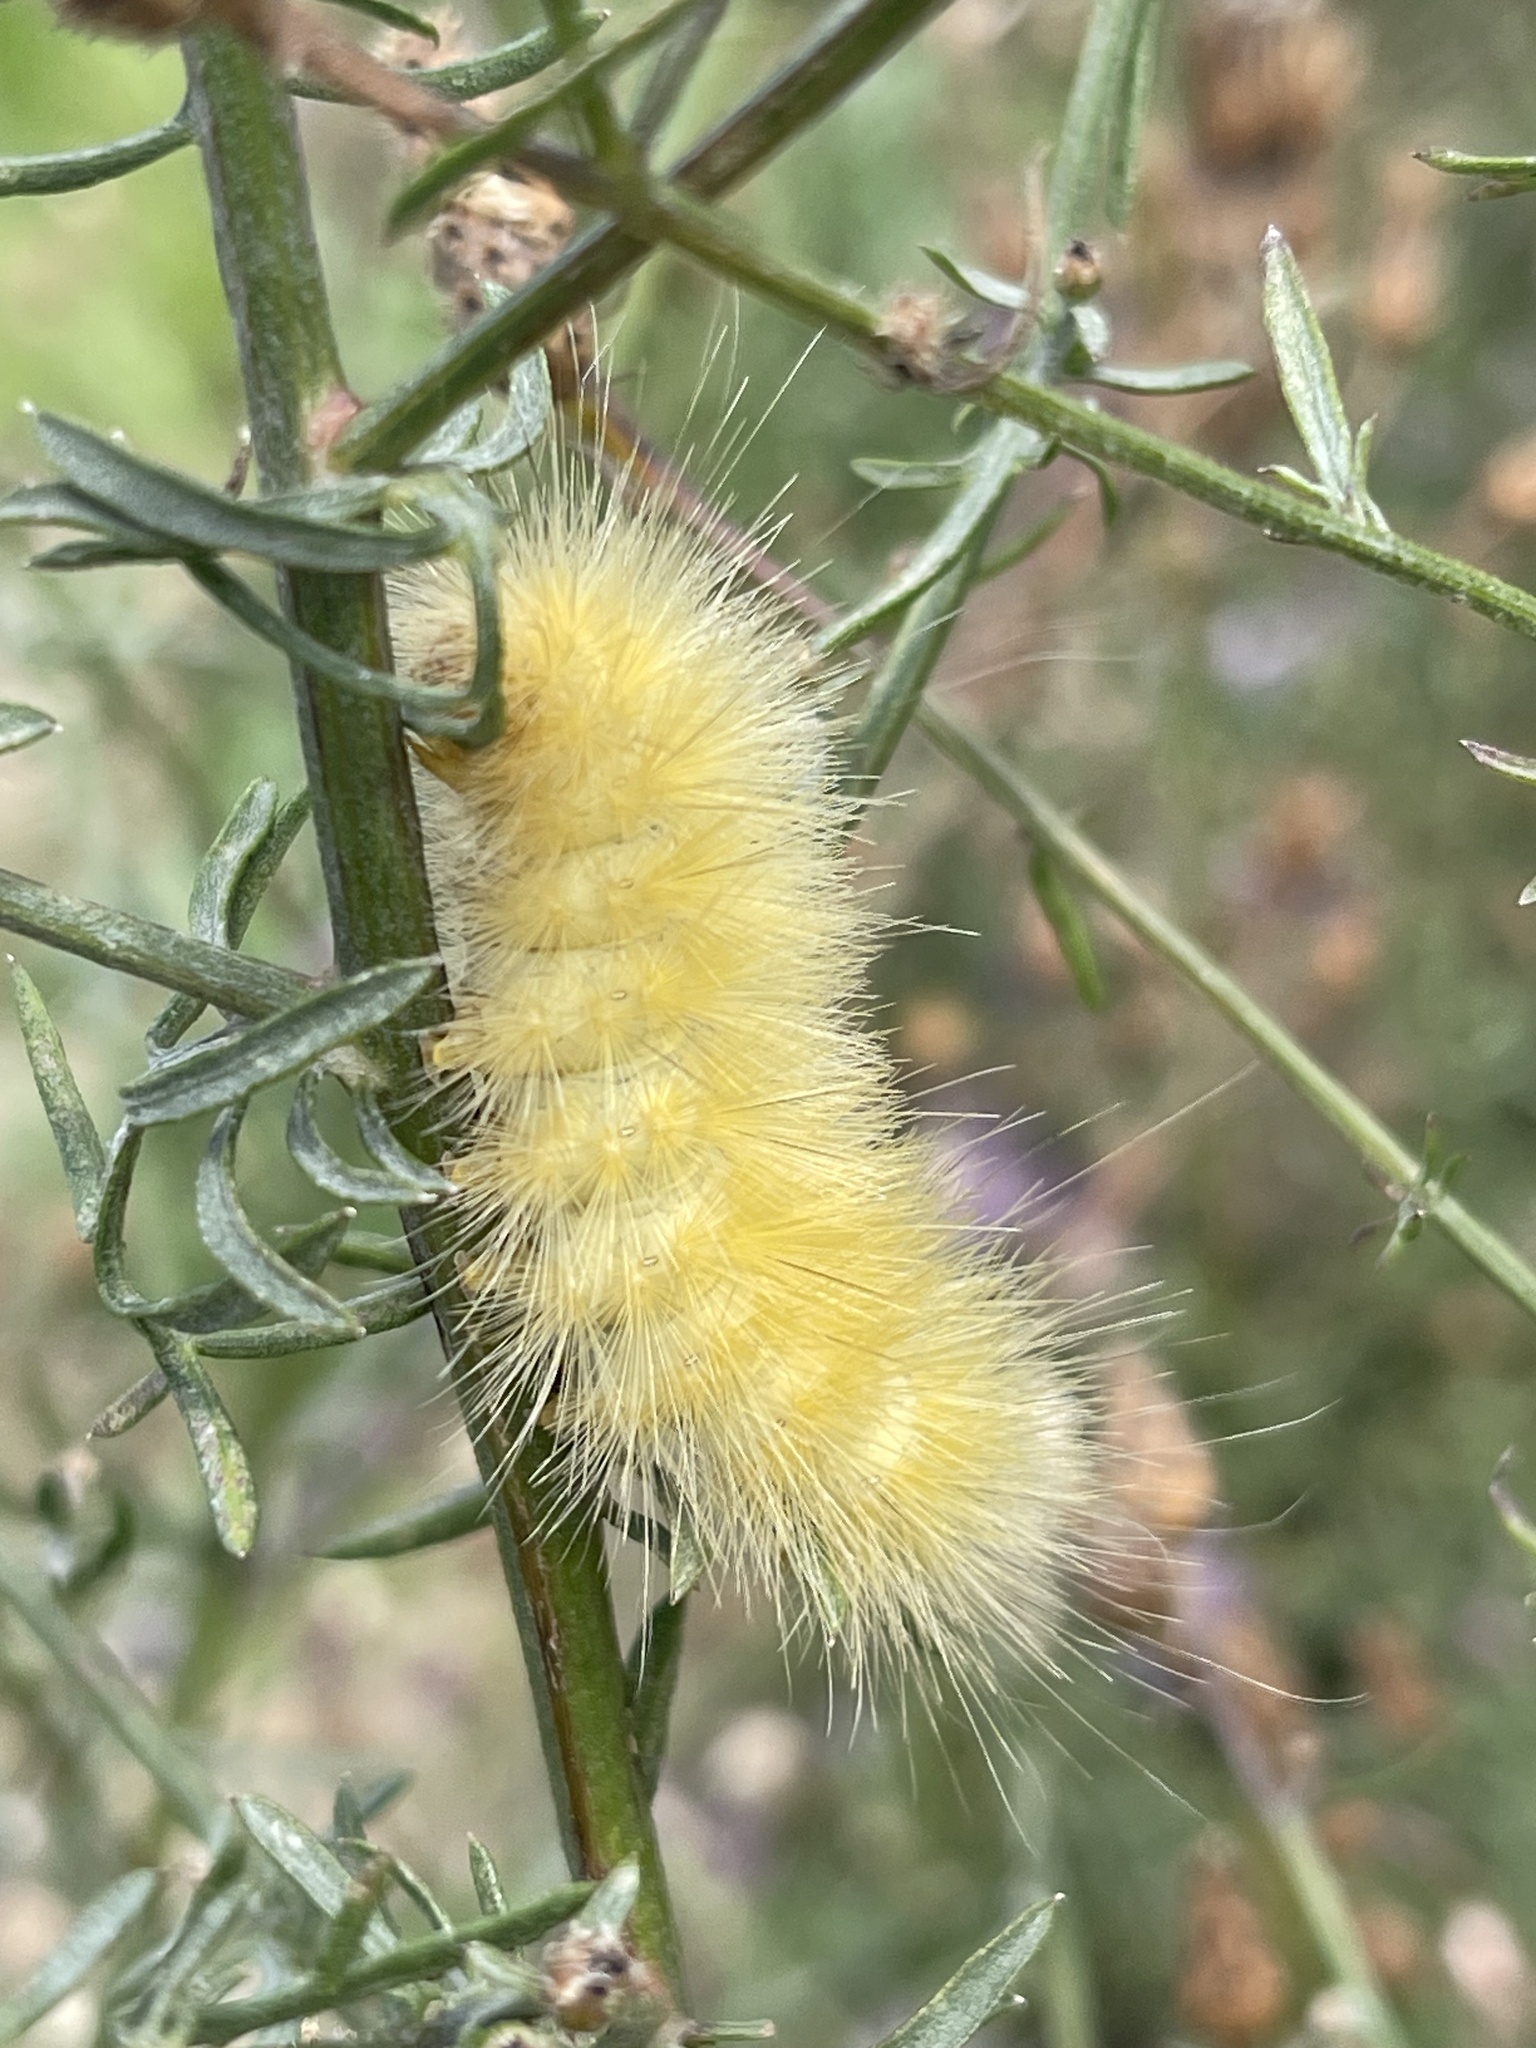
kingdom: Animalia
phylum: Arthropoda
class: Insecta
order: Lepidoptera
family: Erebidae
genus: Spilosoma
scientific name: Spilosoma virginica
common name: Virginia tiger moth
